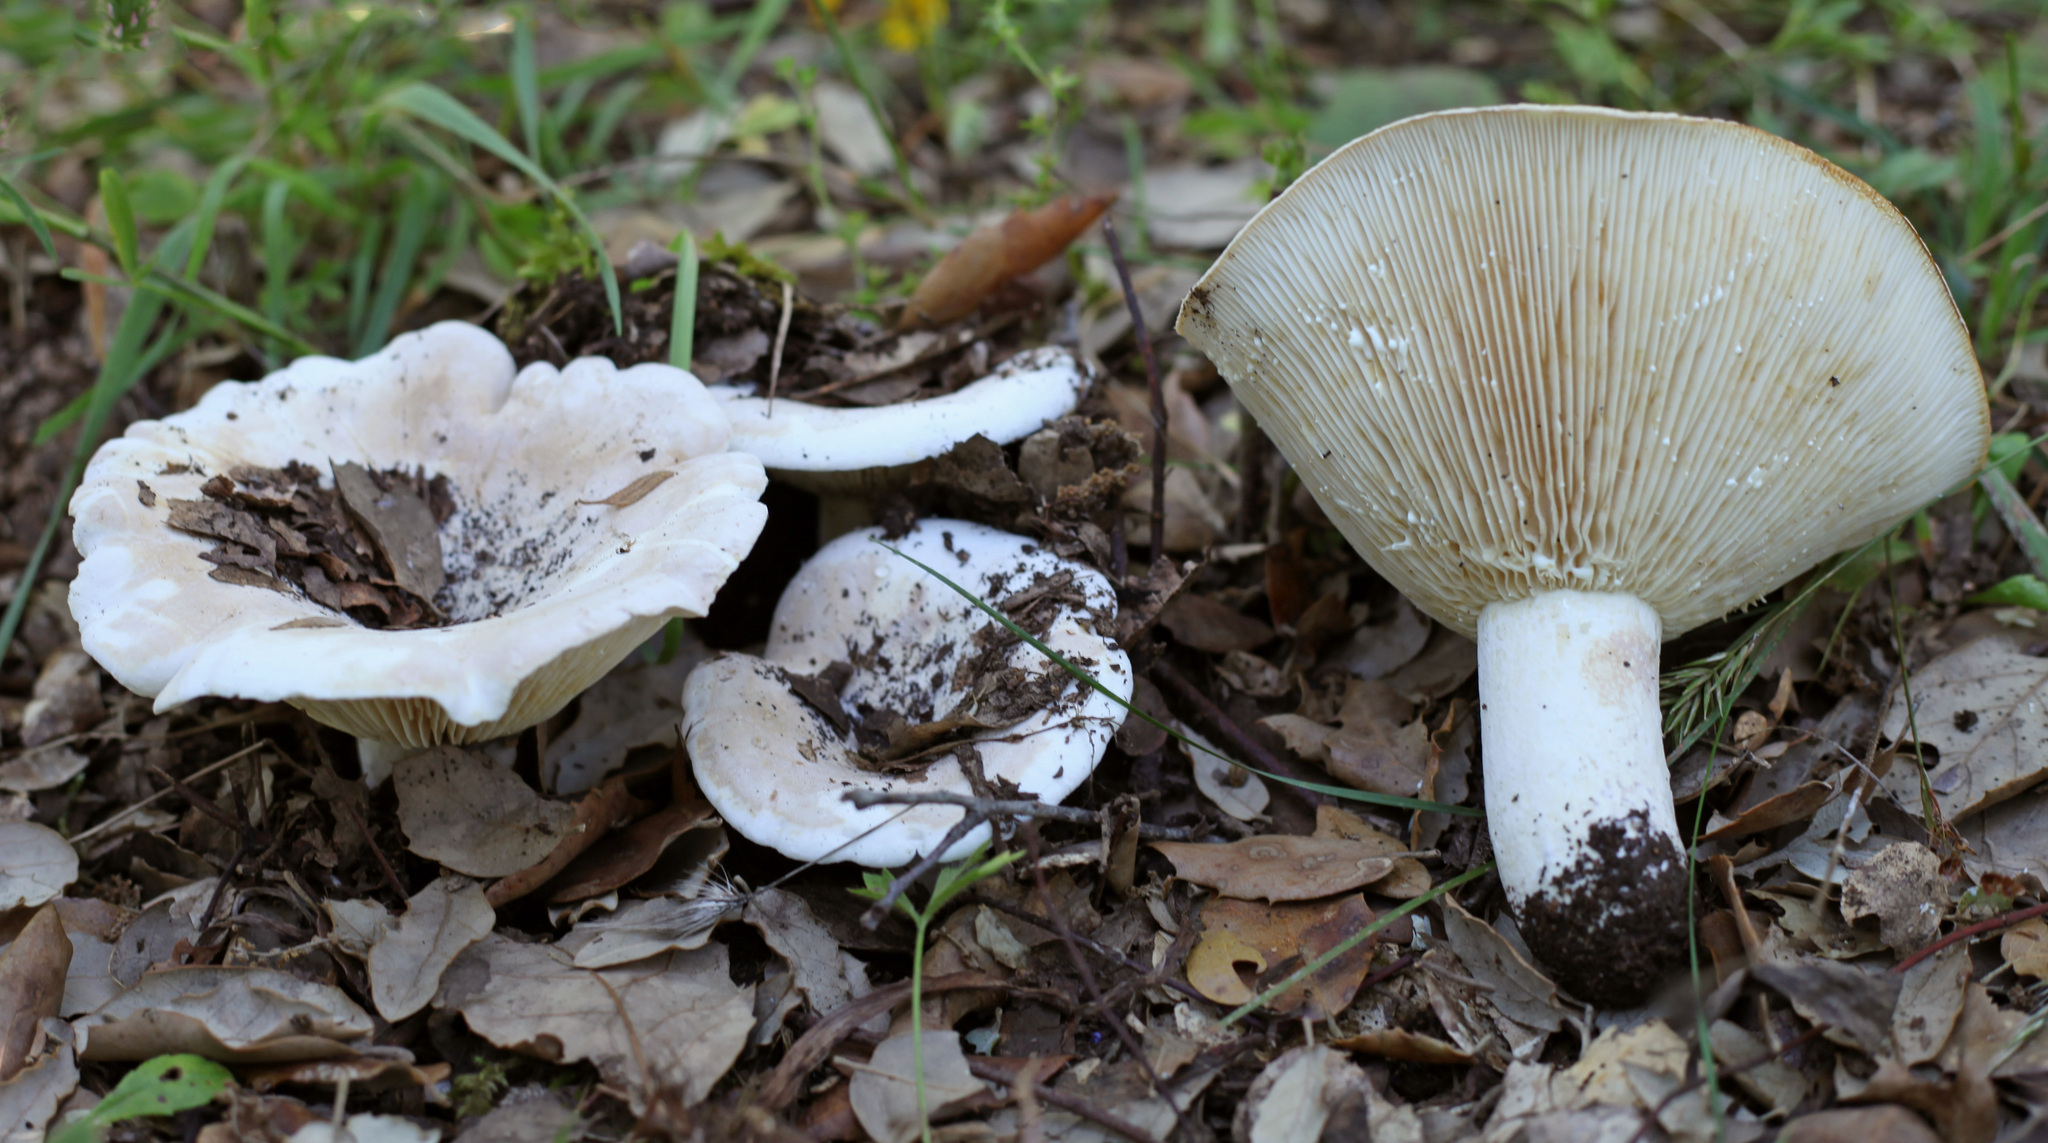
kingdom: Fungi
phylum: Basidiomycota
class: Agaricomycetes
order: Russulales
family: Russulaceae
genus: Lactifluus
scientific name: Lactifluus vellereus
